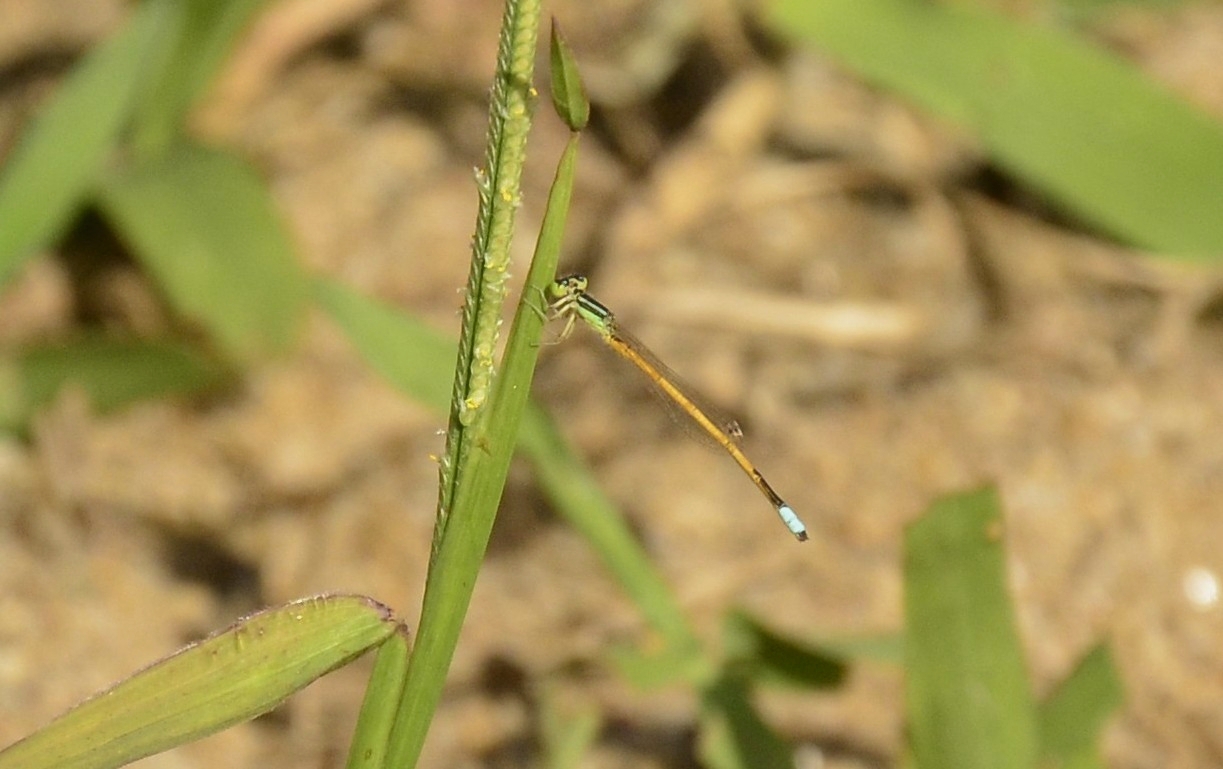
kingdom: Animalia
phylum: Arthropoda
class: Insecta
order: Odonata
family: Coenagrionidae
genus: Ischnura
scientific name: Ischnura rubilio
